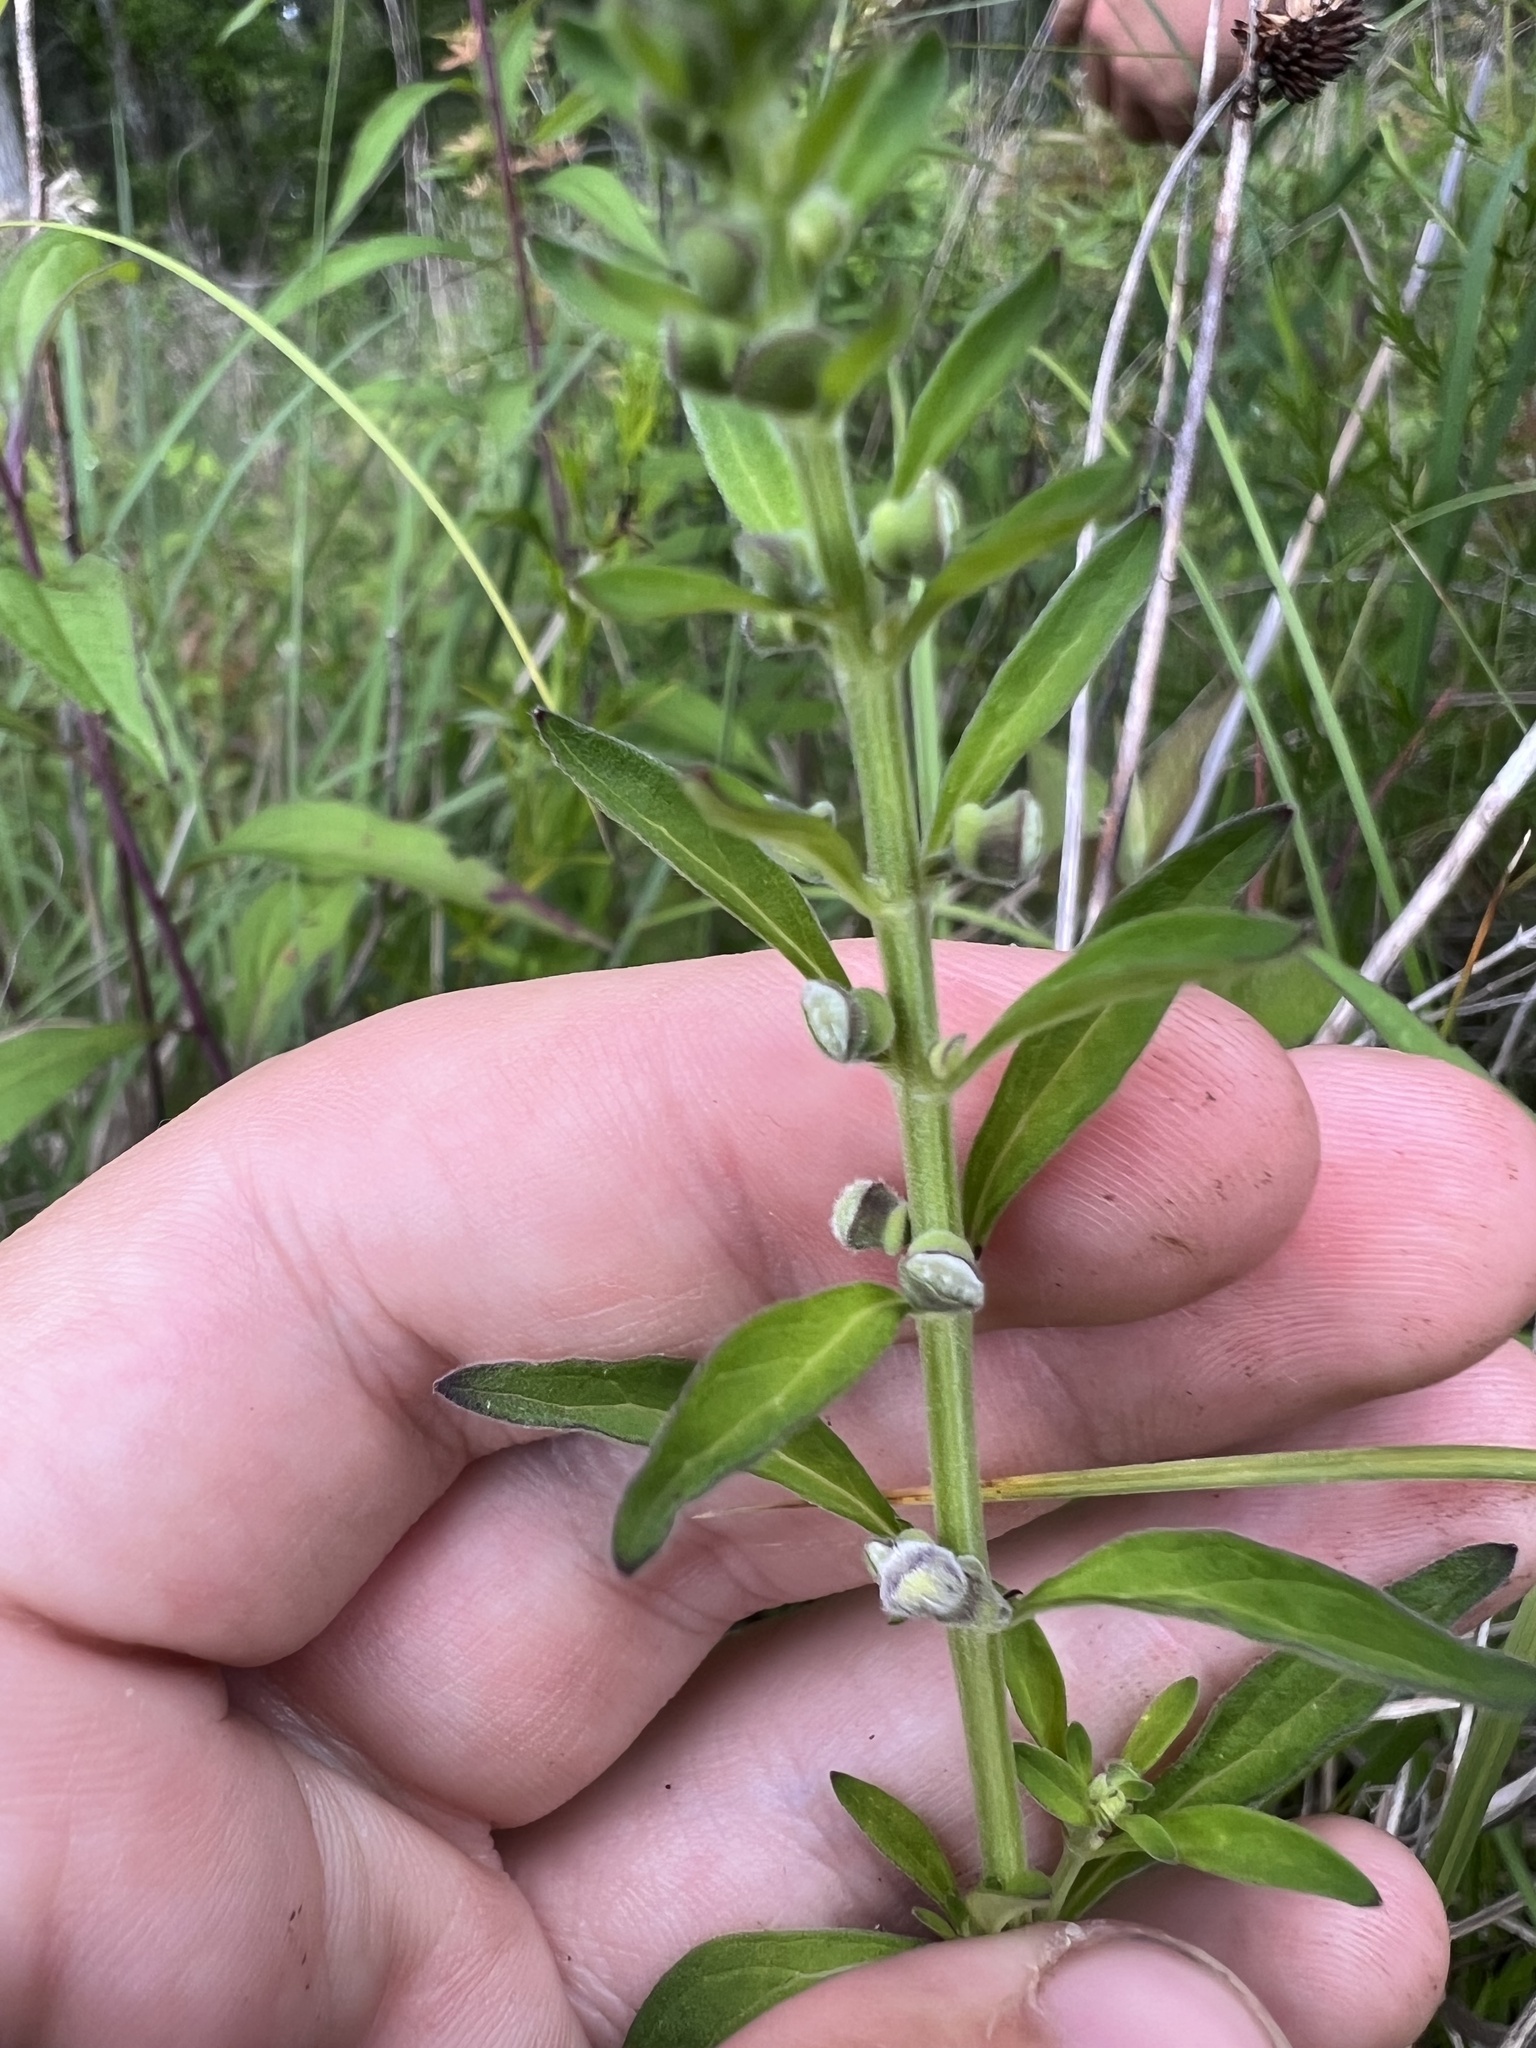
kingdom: Plantae
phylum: Tracheophyta
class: Magnoliopsida
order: Lamiales
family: Lamiaceae
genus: Scutellaria
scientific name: Scutellaria integrifolia
